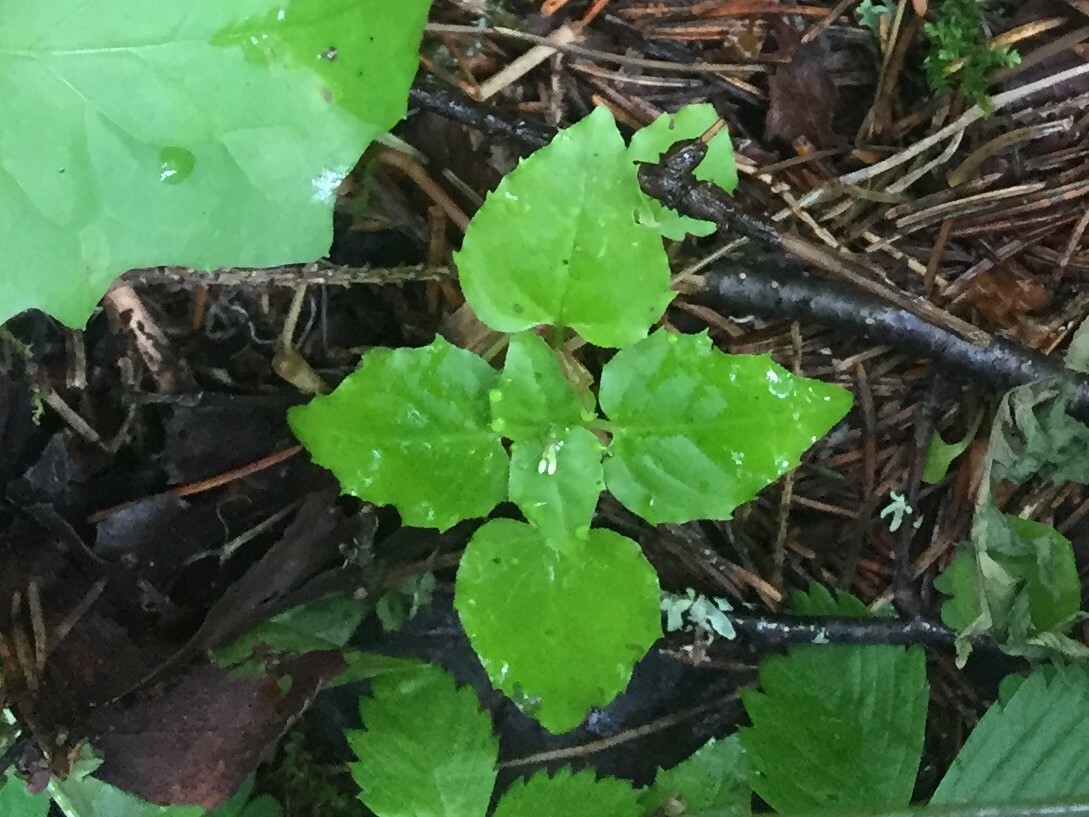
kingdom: Plantae
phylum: Tracheophyta
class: Magnoliopsida
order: Myrtales
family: Onagraceae
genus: Circaea
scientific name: Circaea alpina
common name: Alpine enchanter's-nightshade
